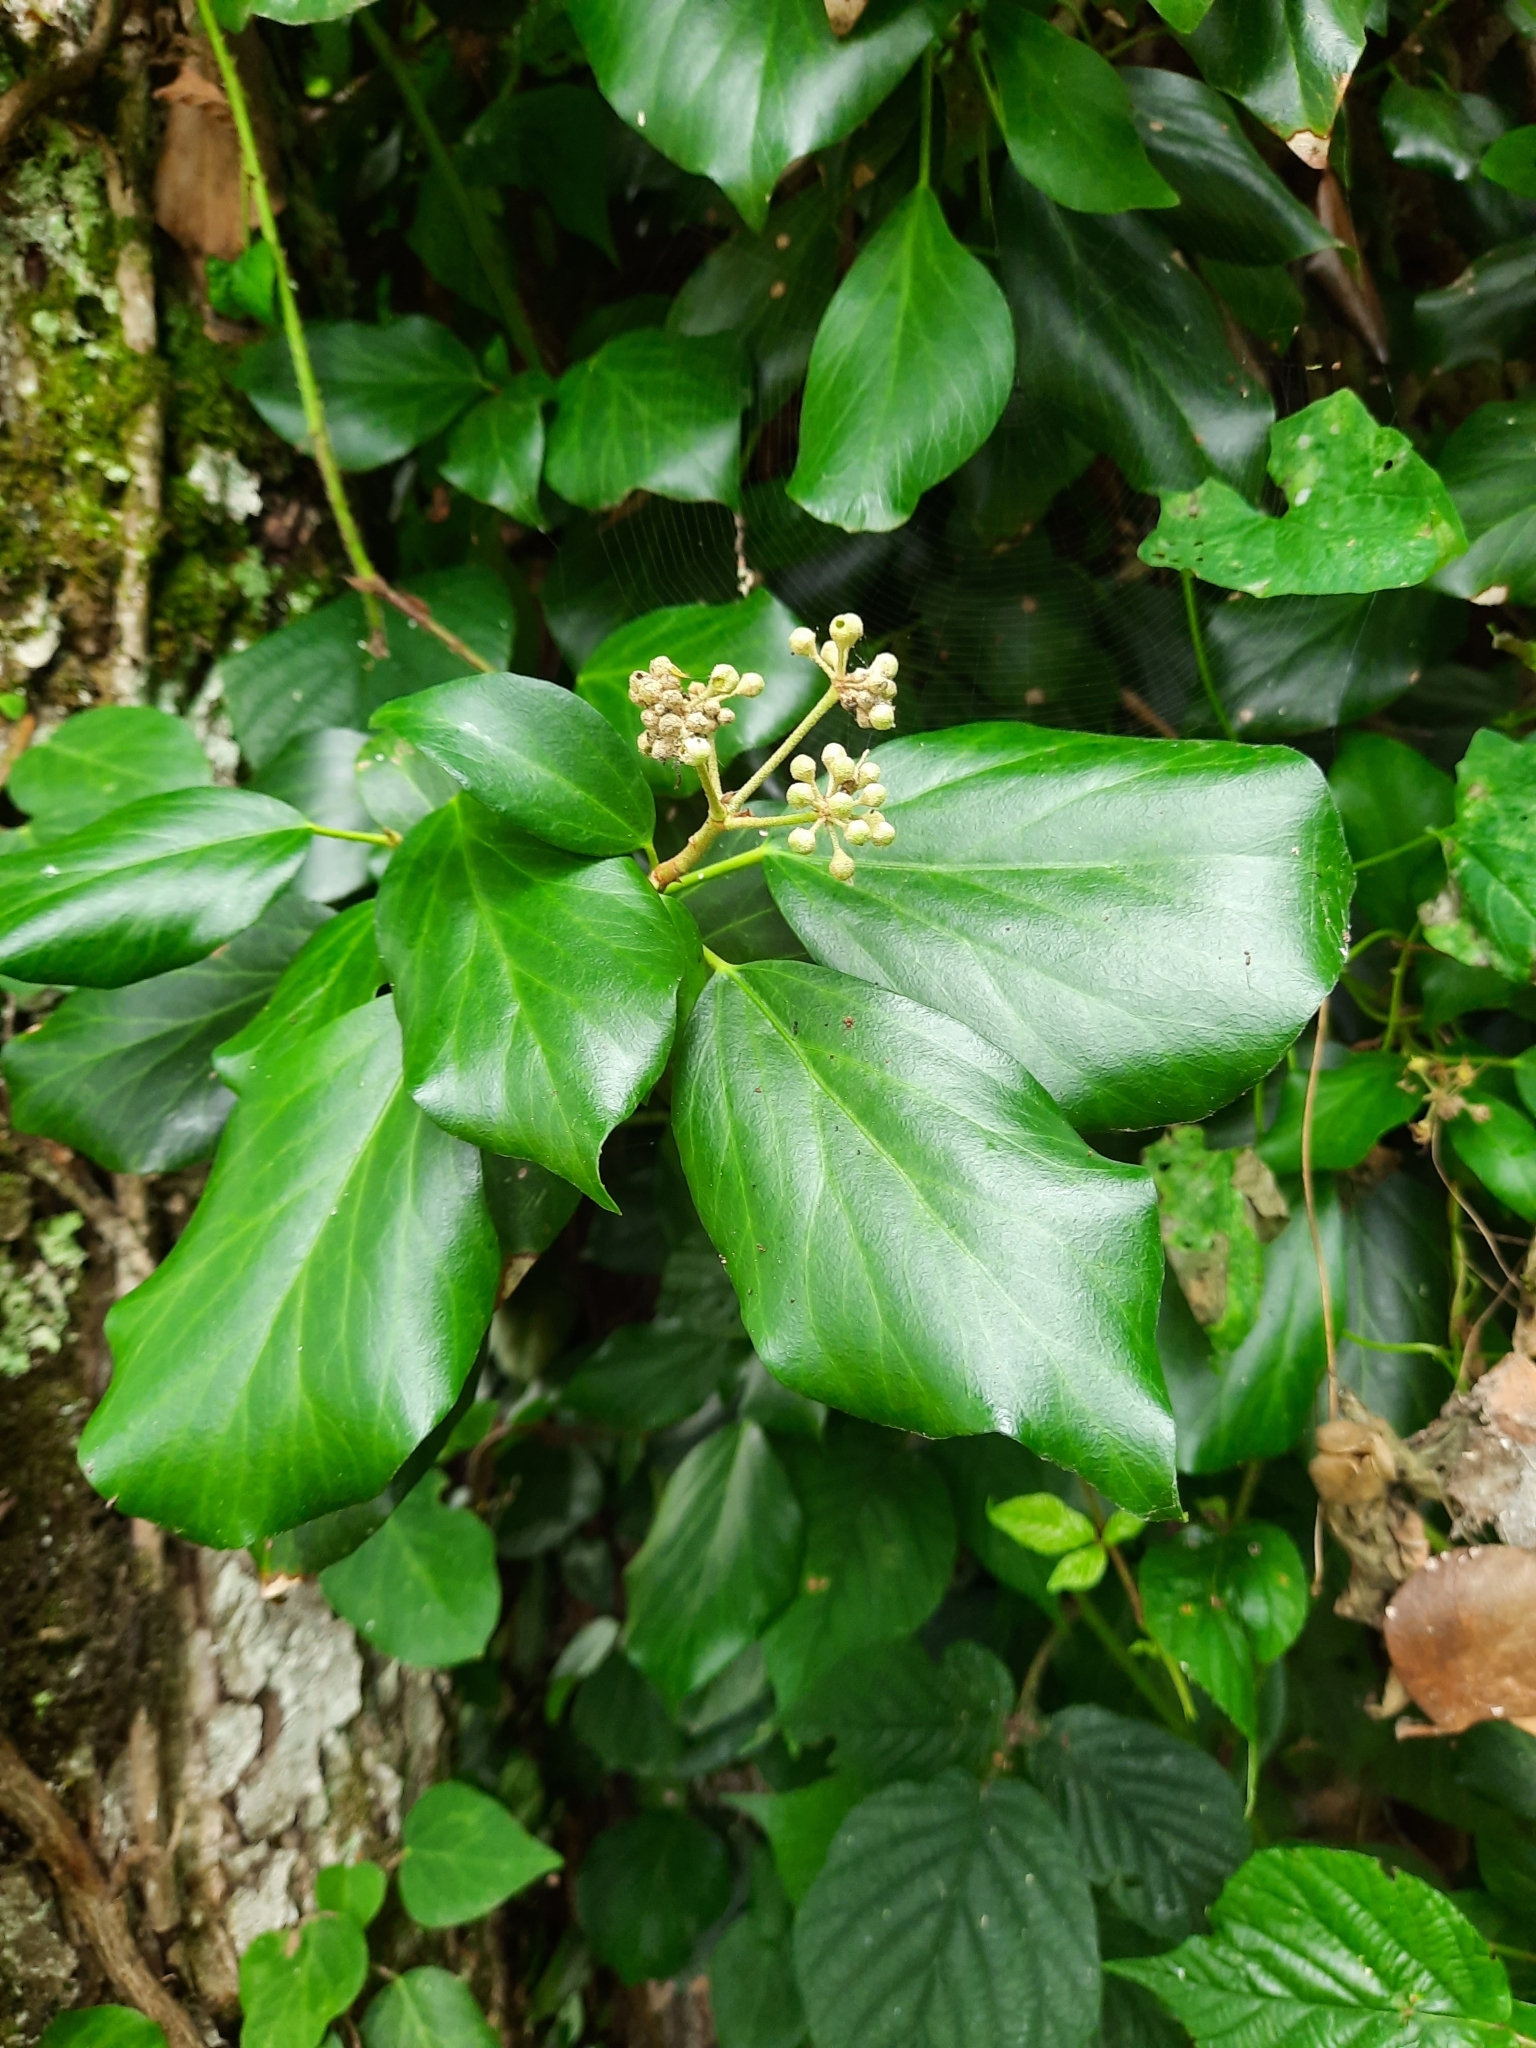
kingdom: Plantae
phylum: Tracheophyta
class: Magnoliopsida
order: Apiales
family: Araliaceae
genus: Hedera
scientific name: Hedera colchica
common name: Persian ivy
